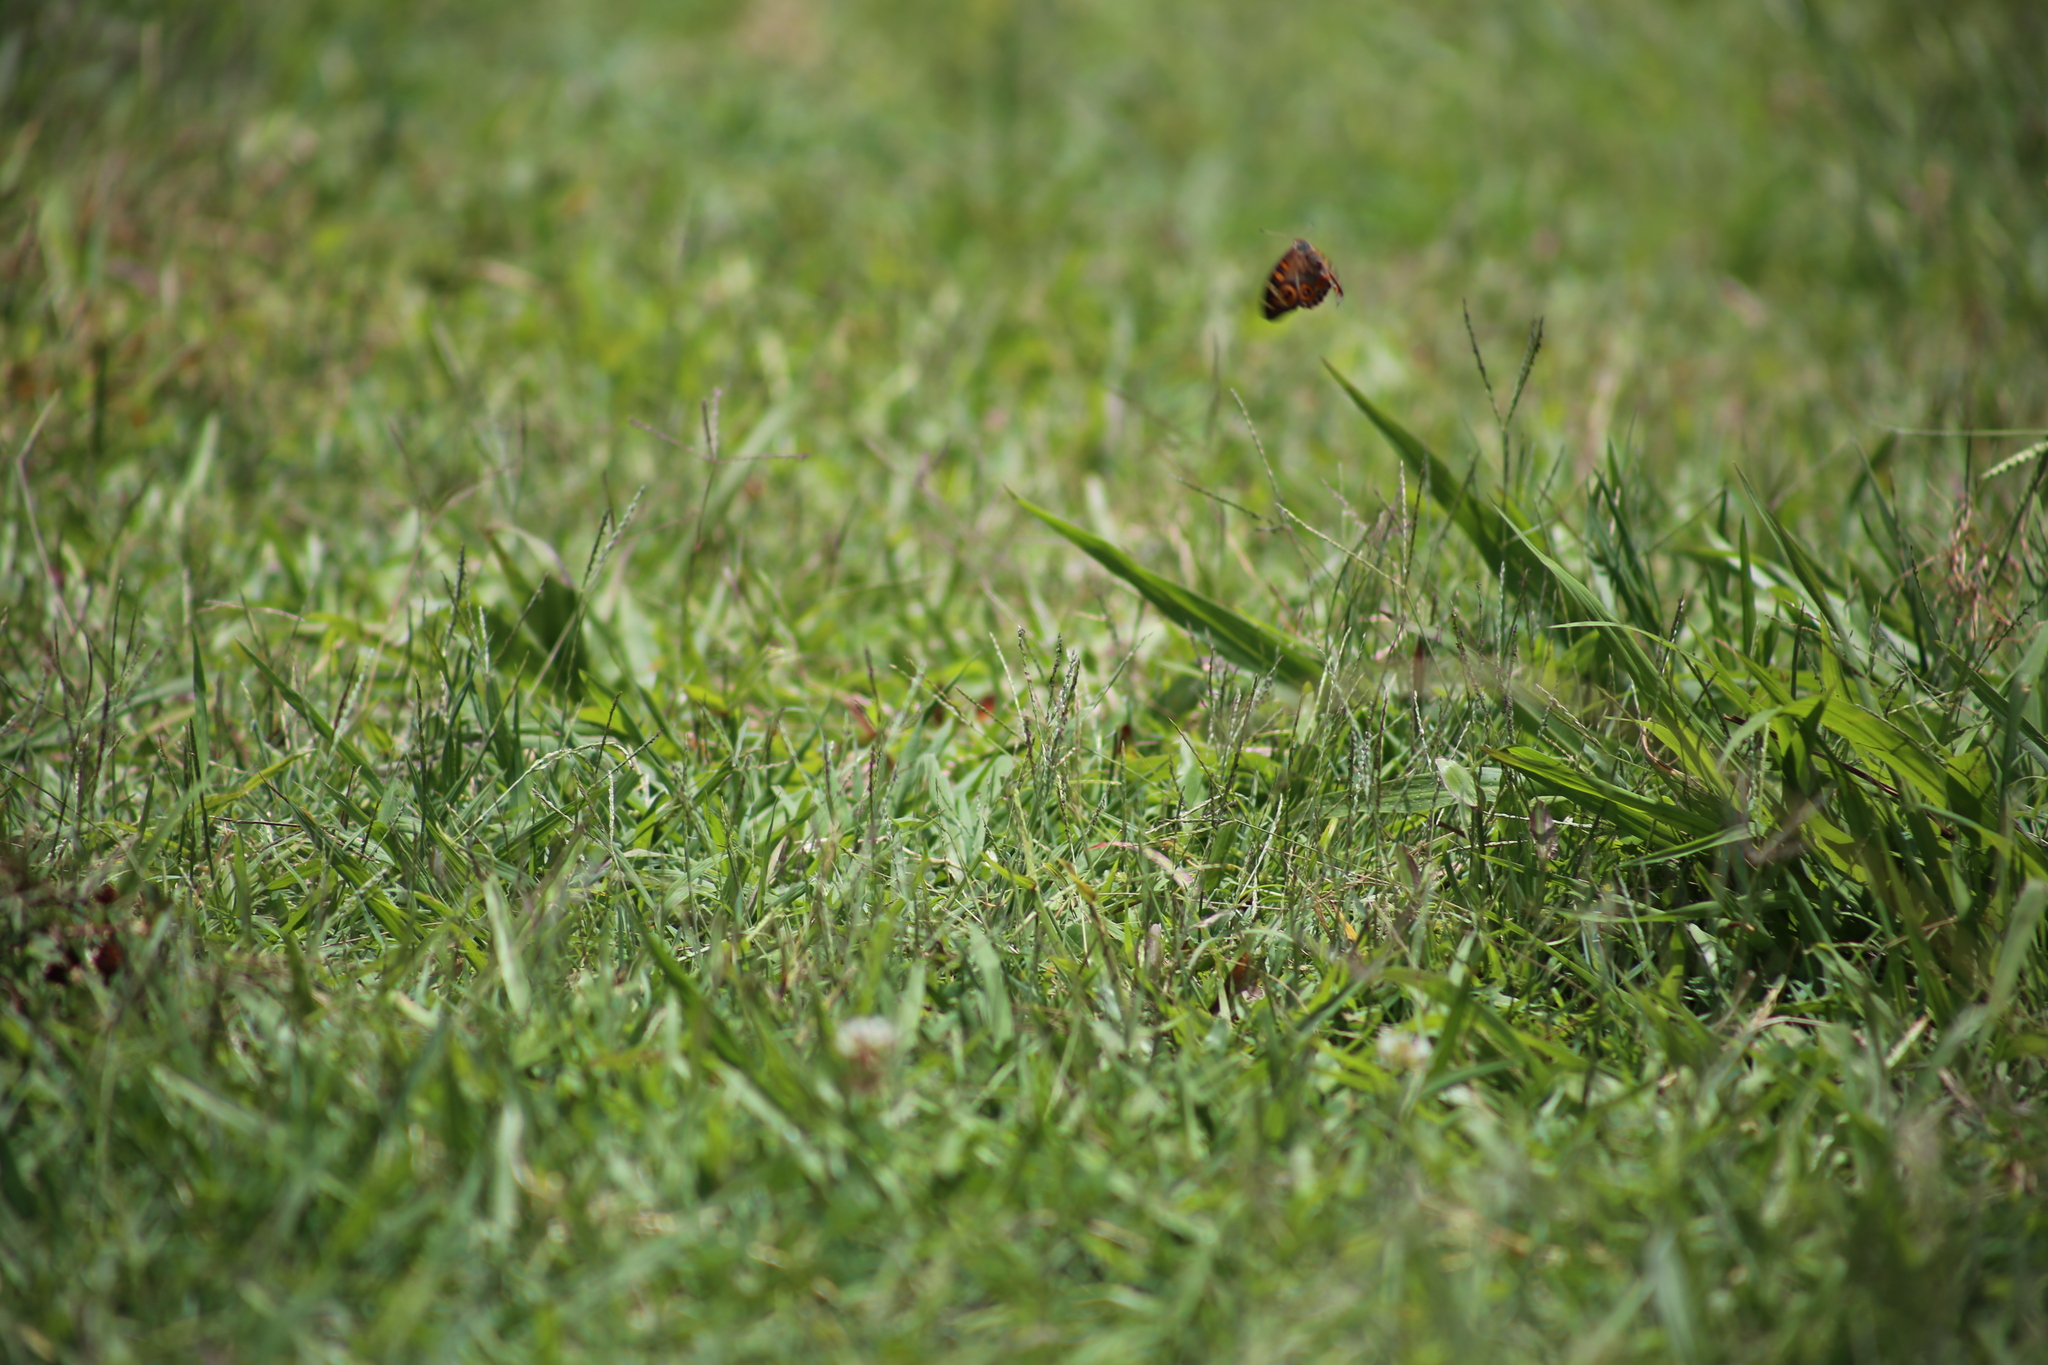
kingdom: Animalia
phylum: Arthropoda
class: Insecta
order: Lepidoptera
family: Nymphalidae
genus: Junonia
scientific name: Junonia villida
